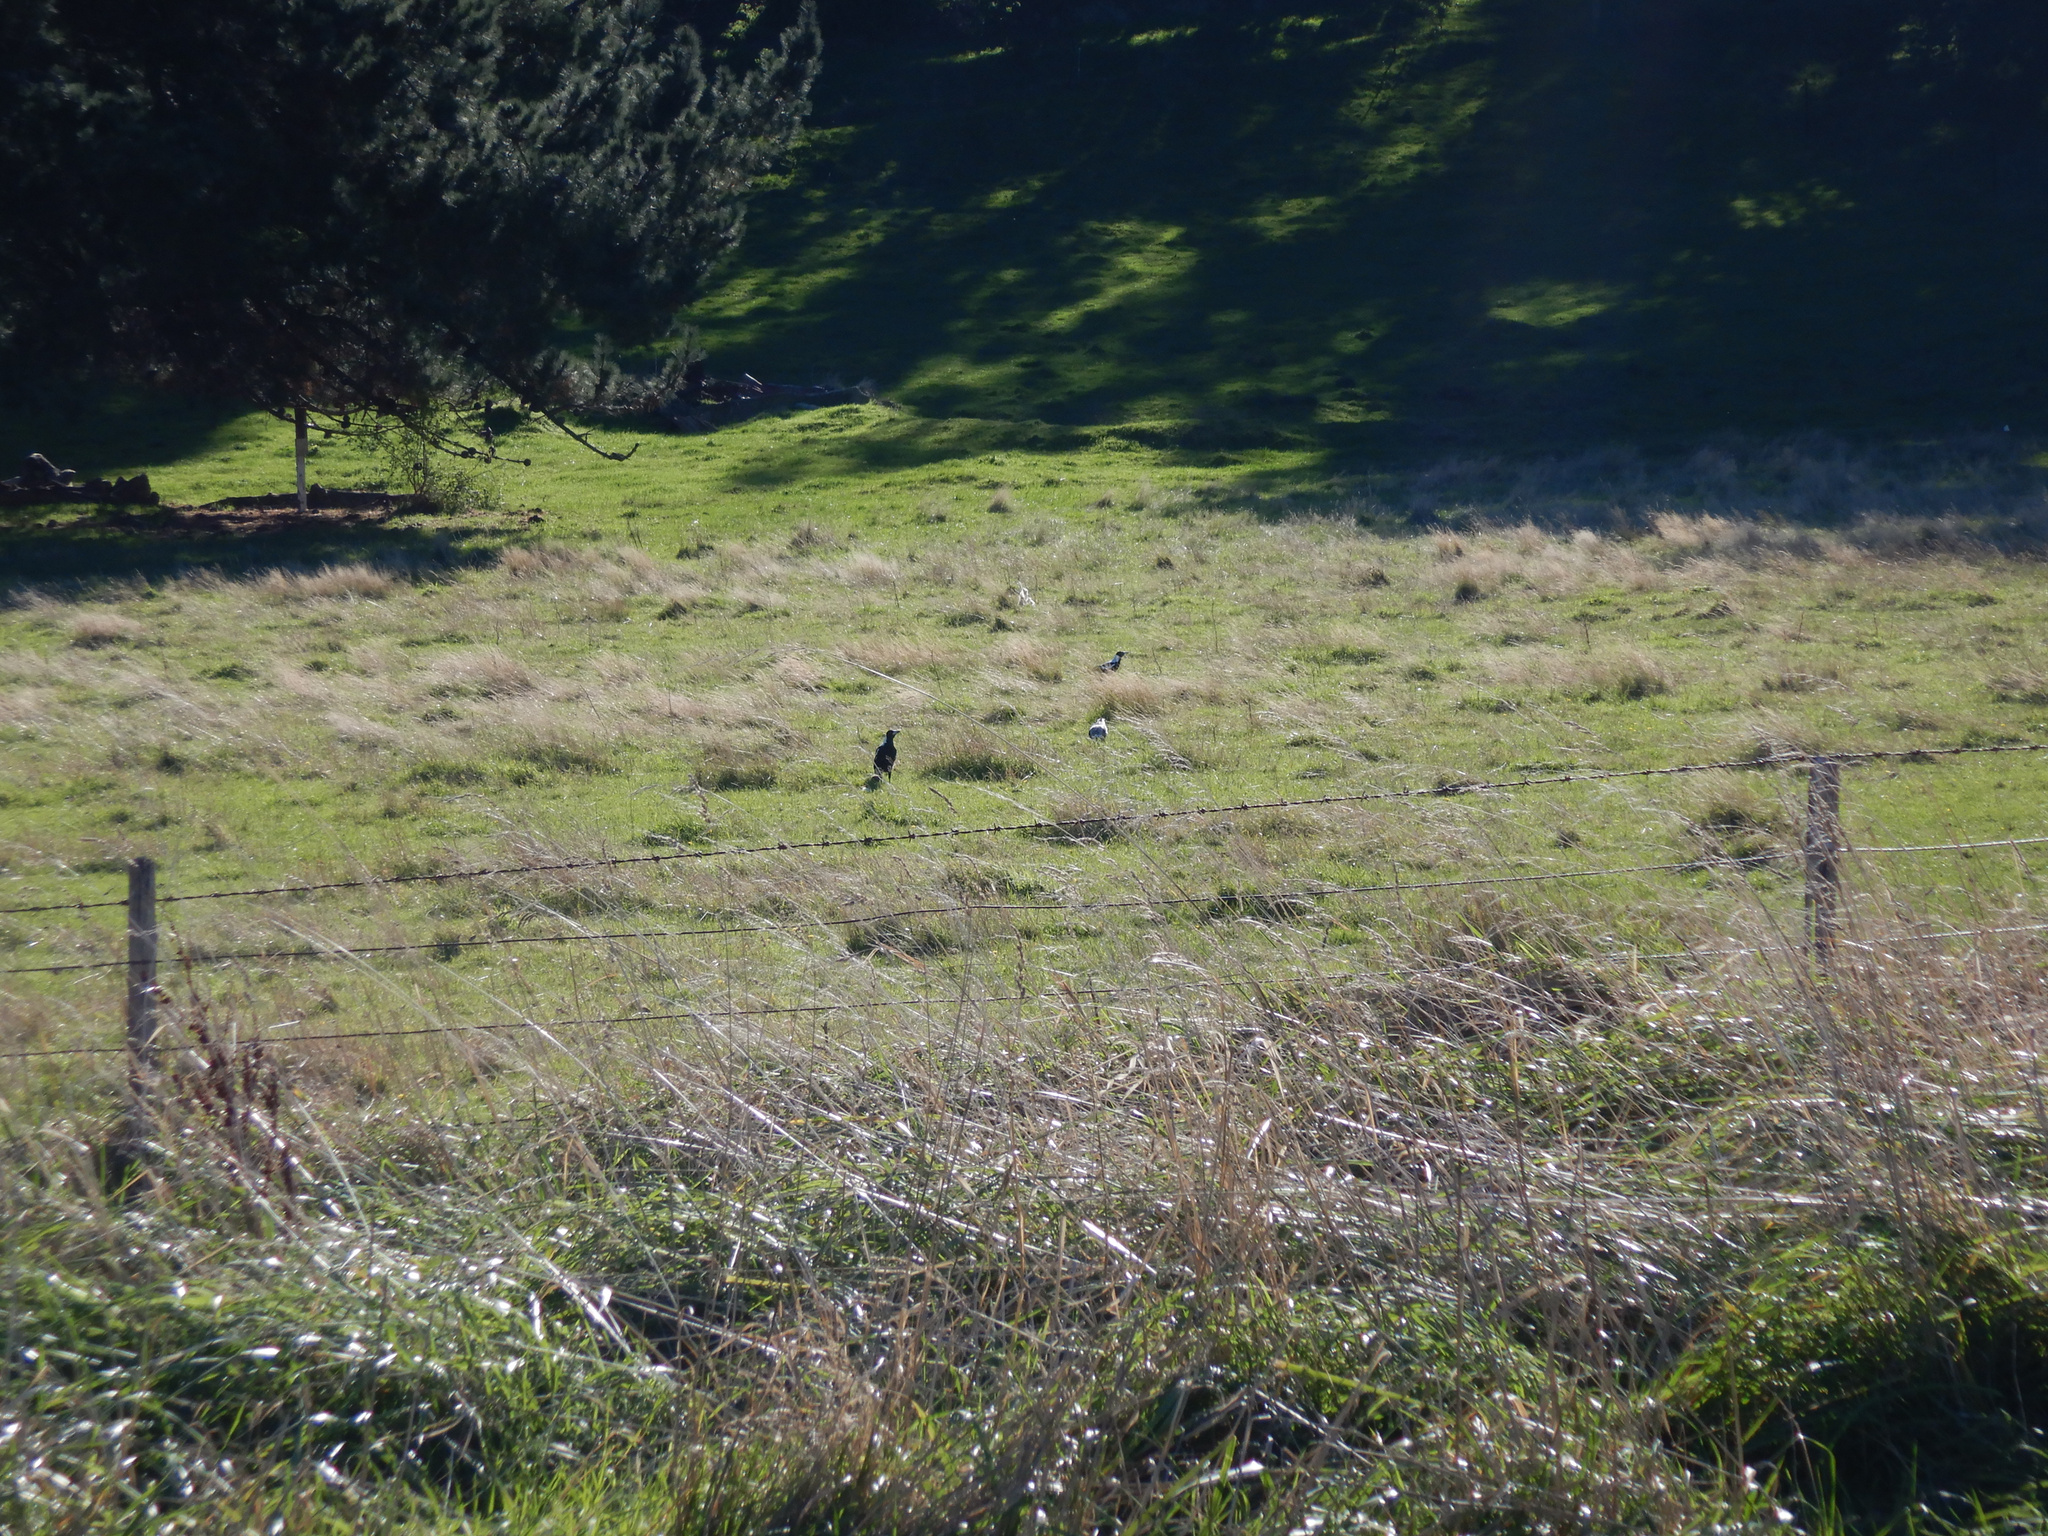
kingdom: Animalia
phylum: Chordata
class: Aves
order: Passeriformes
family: Cracticidae
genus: Gymnorhina
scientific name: Gymnorhina tibicen
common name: Australian magpie
